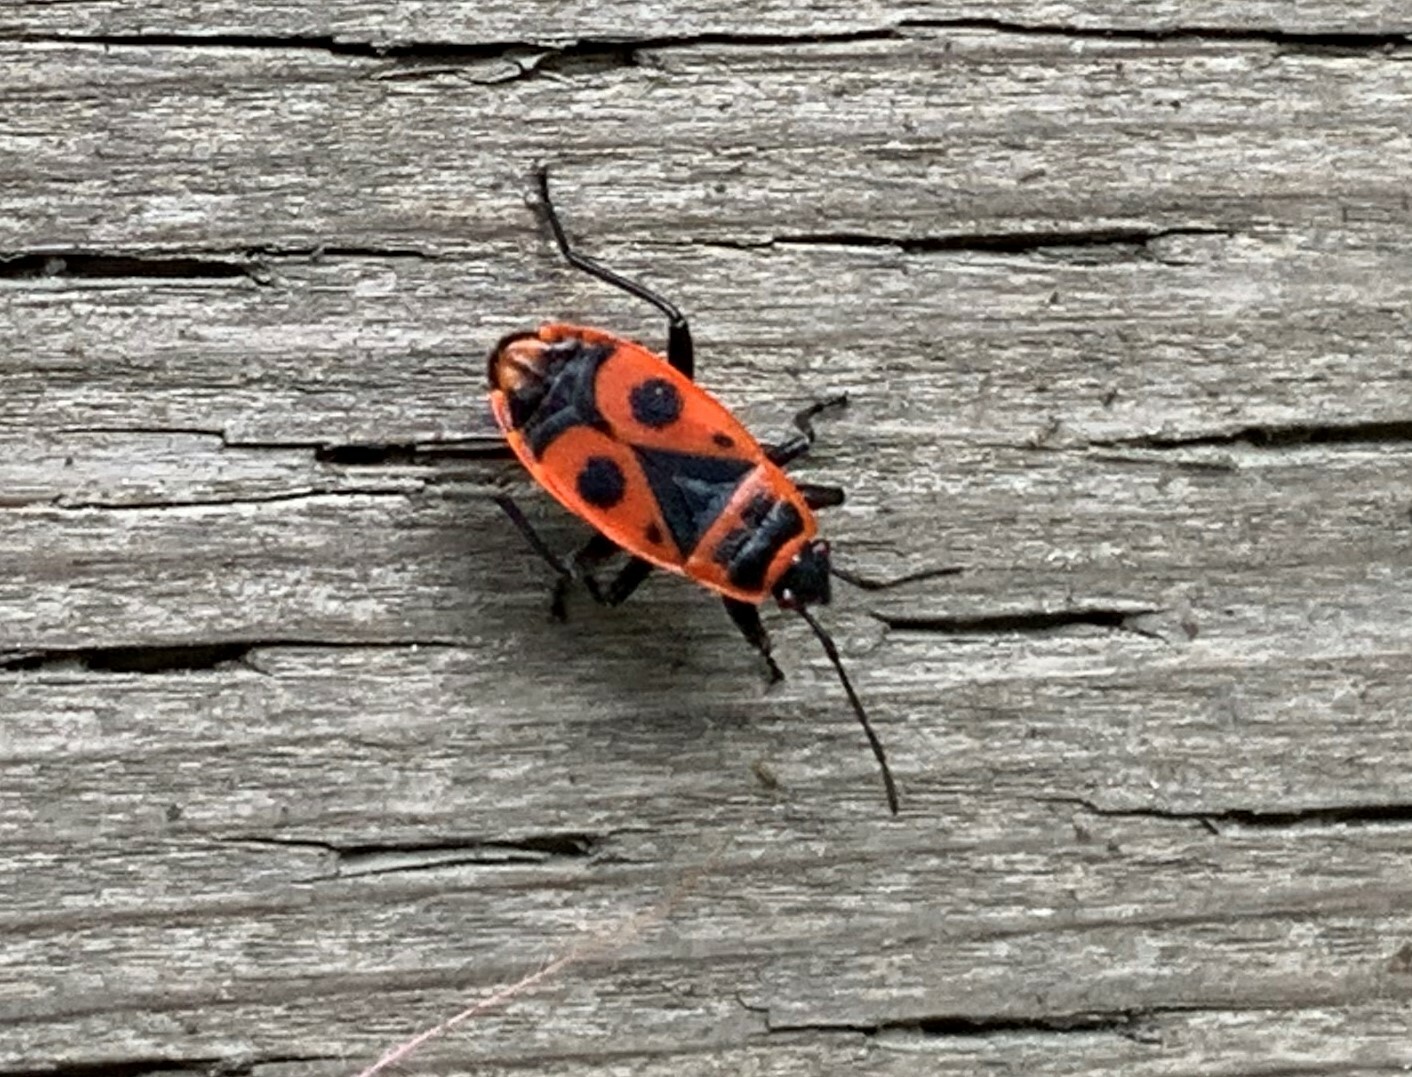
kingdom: Animalia
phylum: Arthropoda
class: Insecta
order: Hemiptera
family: Pyrrhocoridae
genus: Pyrrhocoris
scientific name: Pyrrhocoris apterus
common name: Firebug
